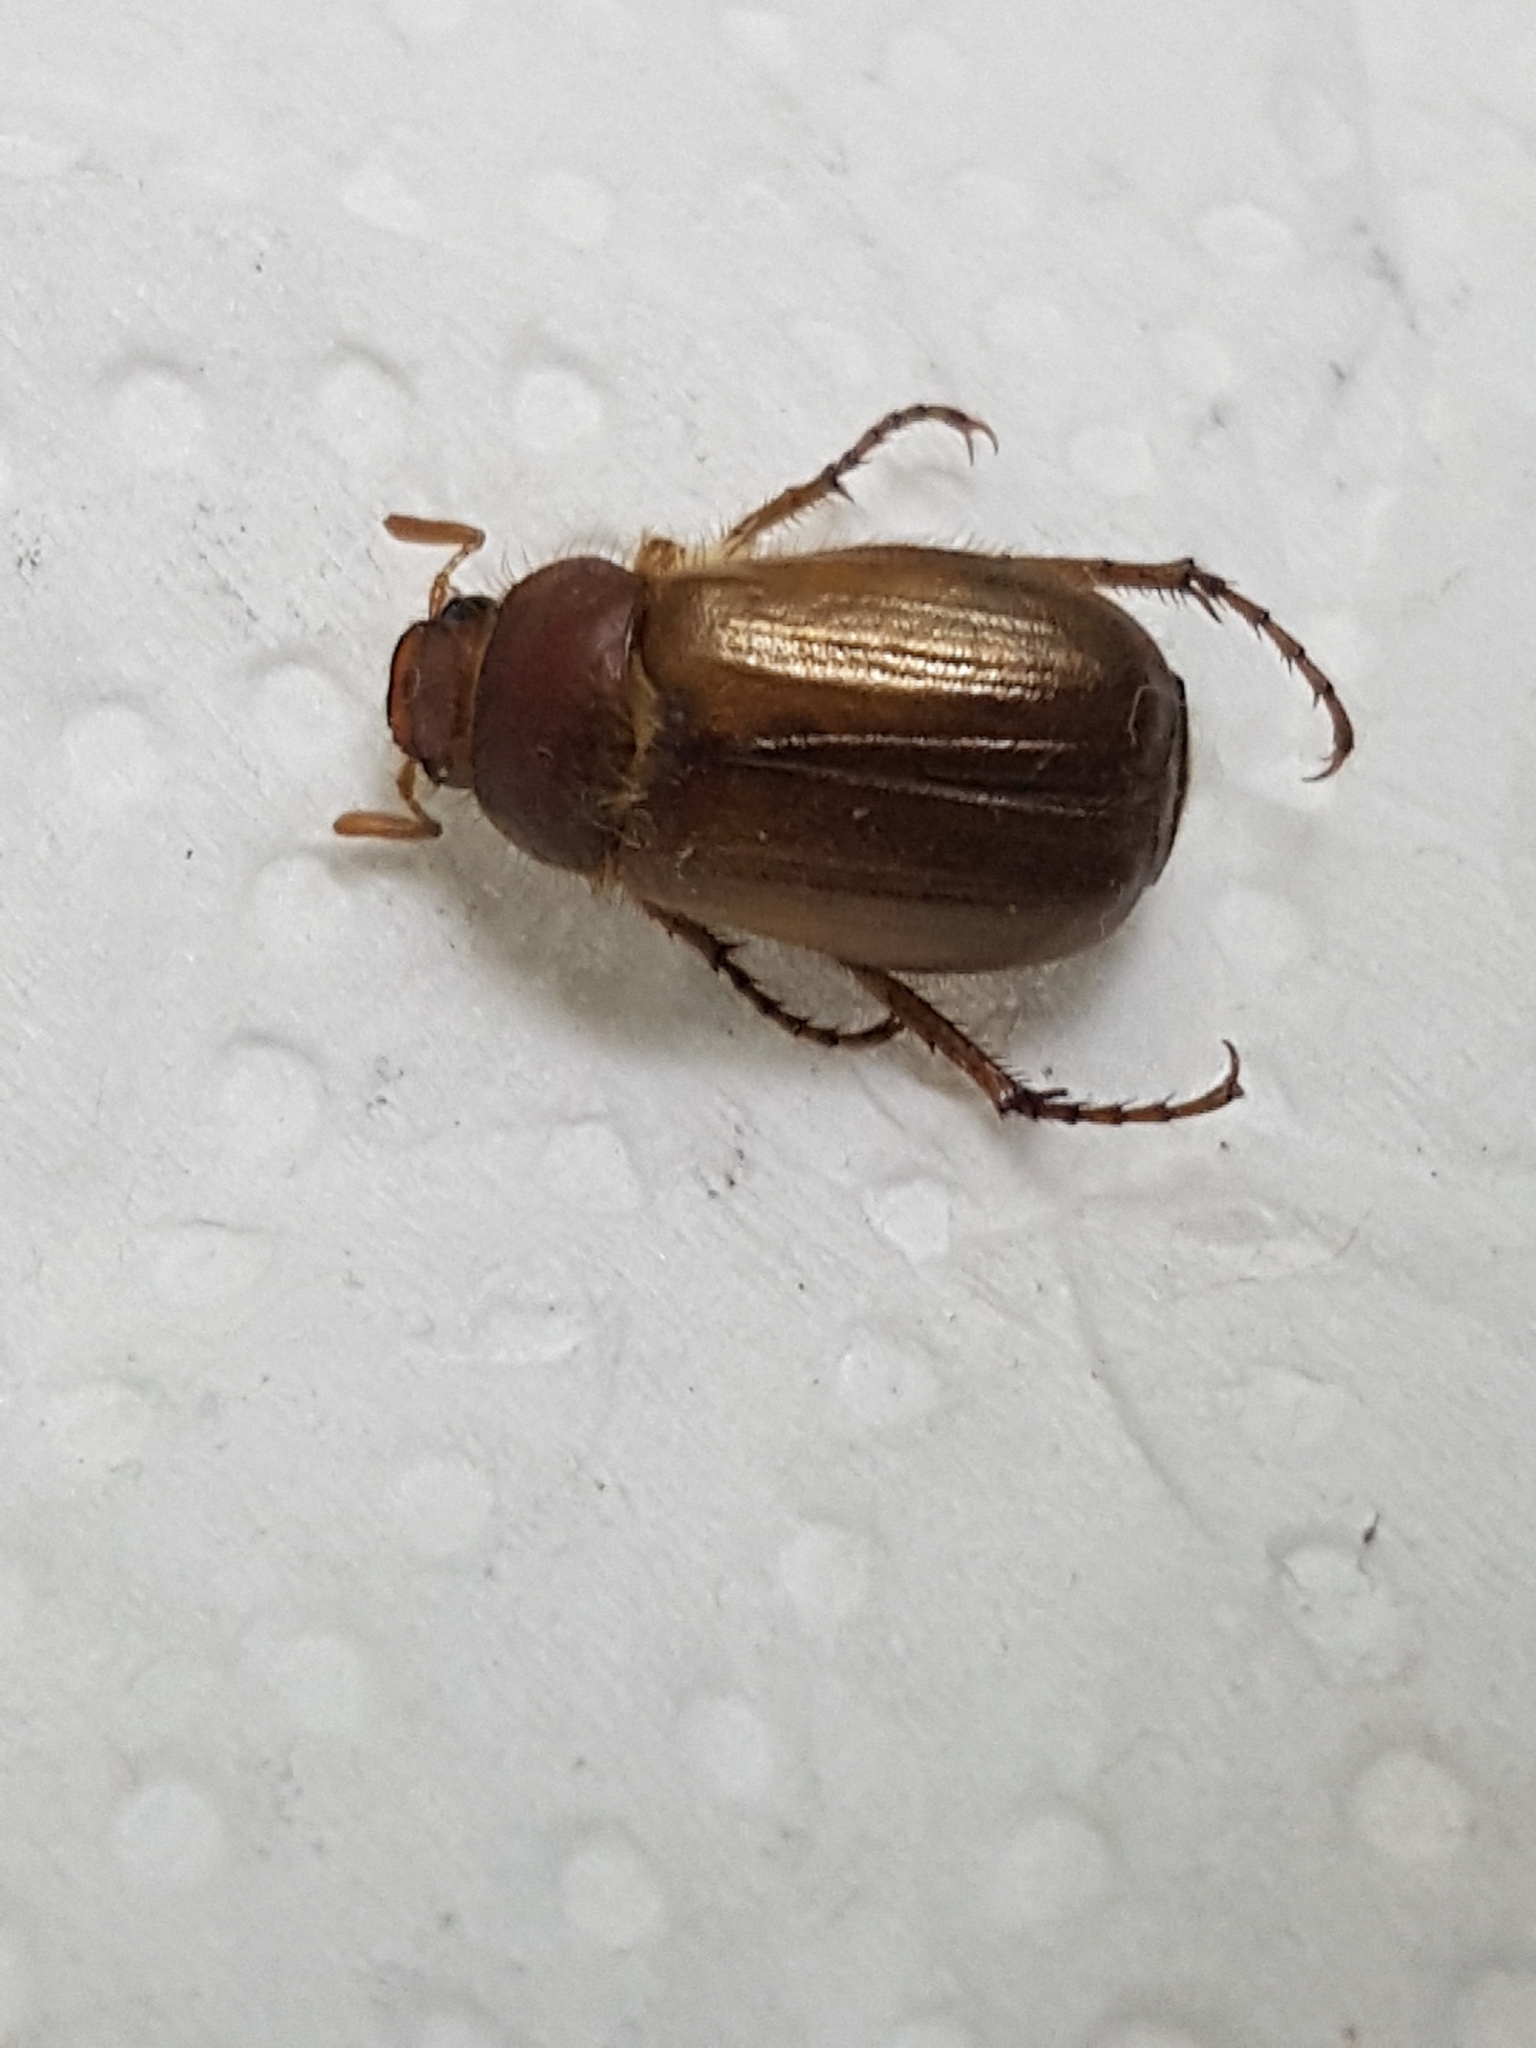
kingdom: Animalia
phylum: Arthropoda
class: Insecta
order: Coleoptera
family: Scarabaeidae
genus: Amphimallon
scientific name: Amphimallon majale
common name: European chafer
